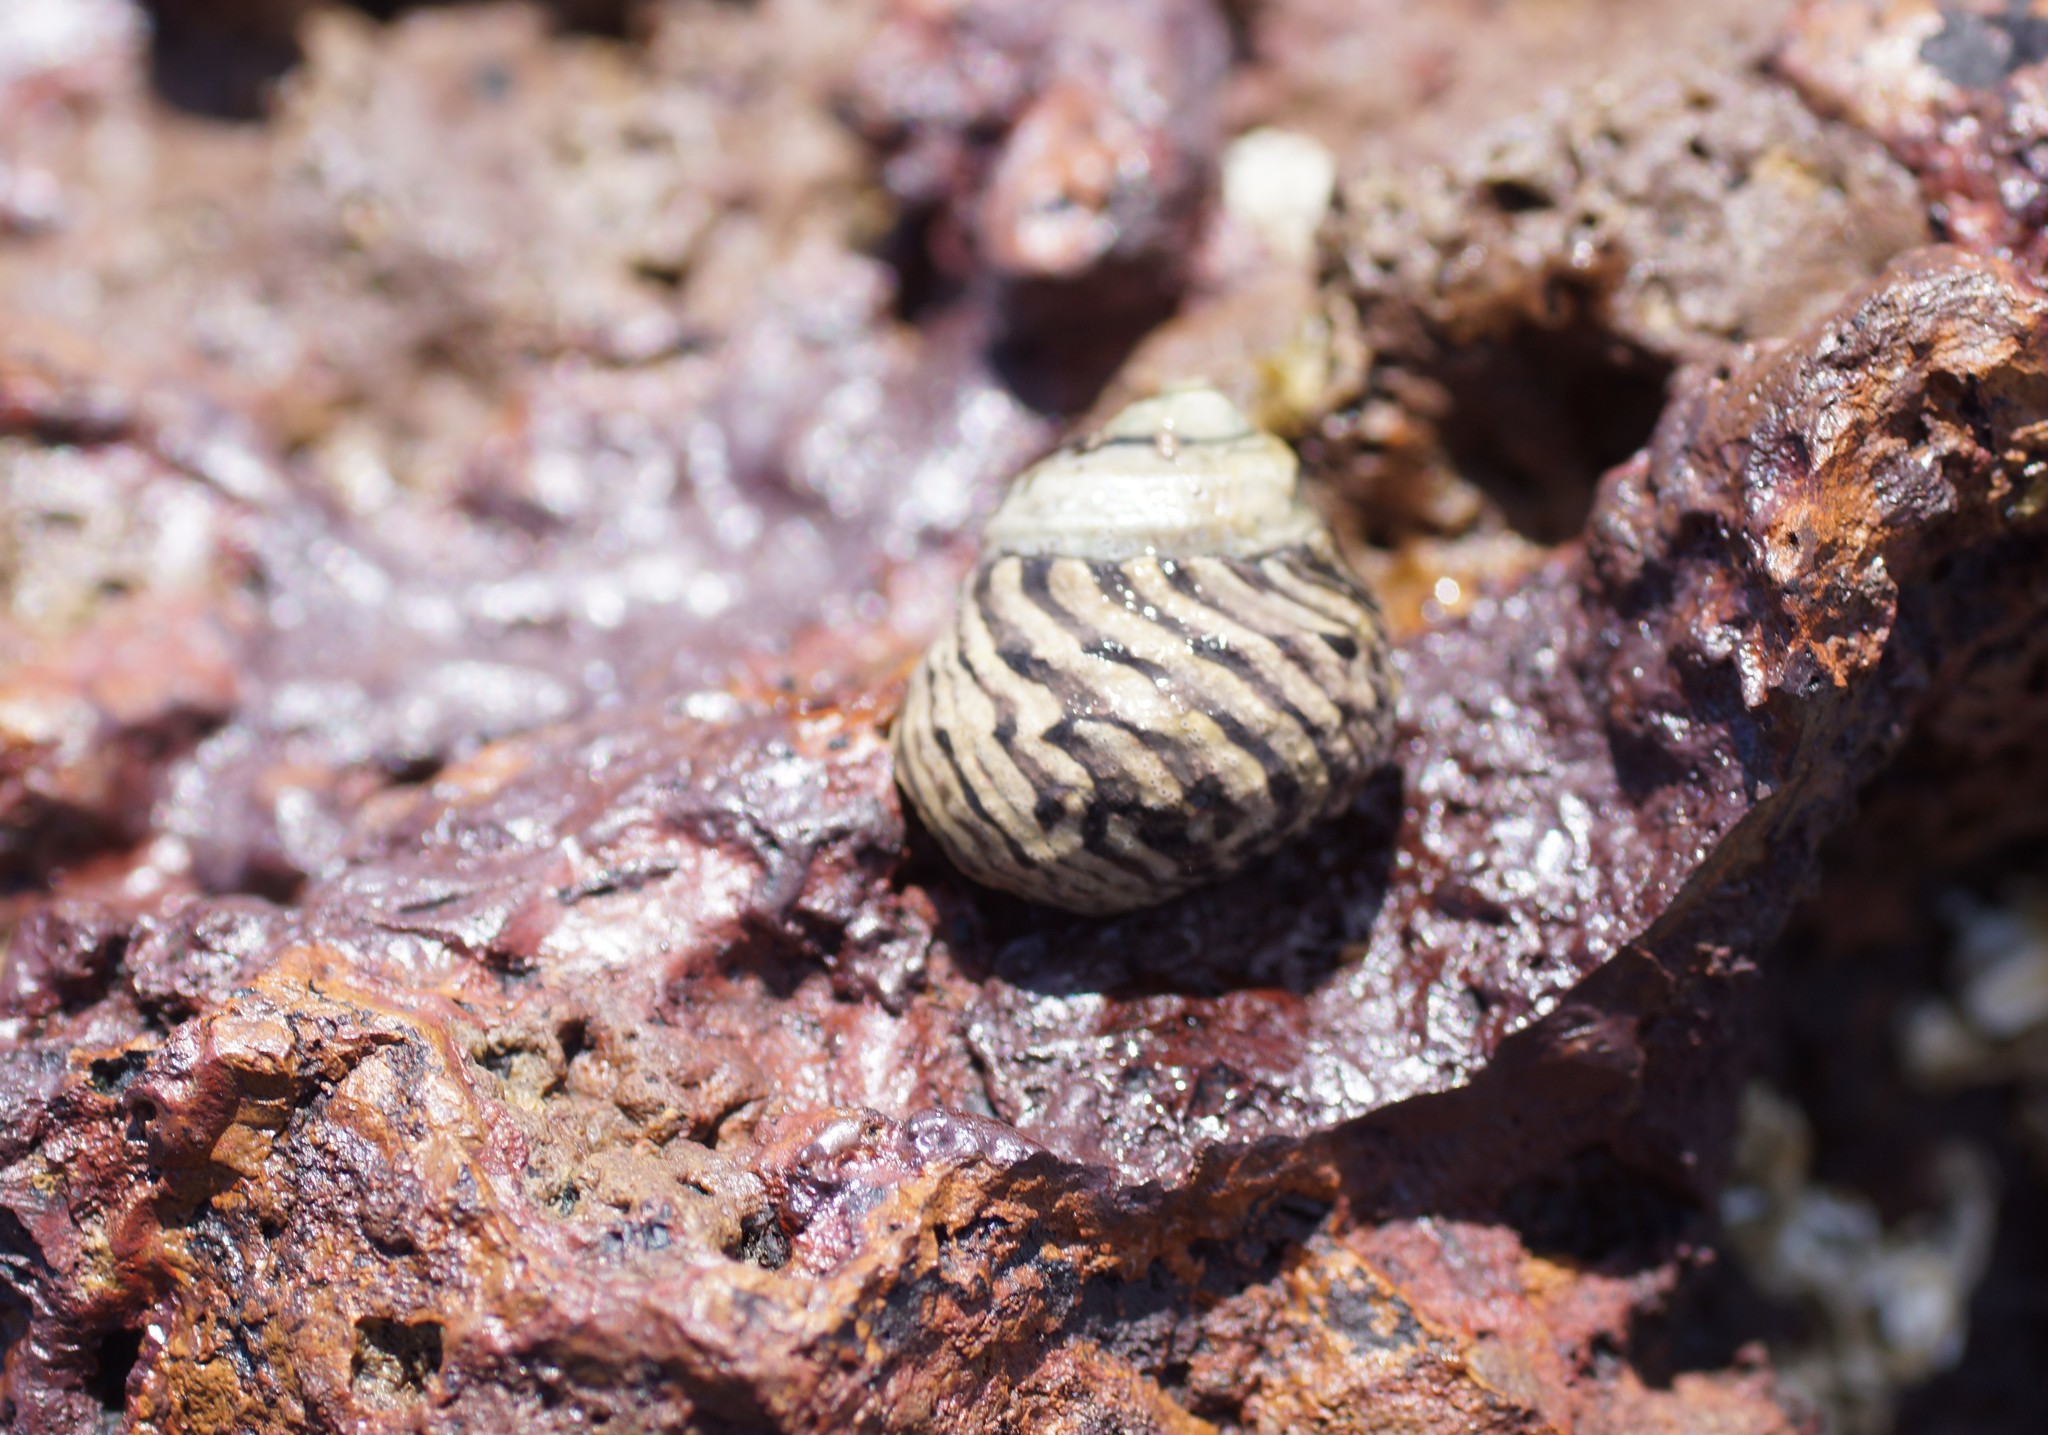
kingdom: Animalia
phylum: Mollusca
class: Gastropoda
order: Trochida
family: Trochidae
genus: Austrocochlea
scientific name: Austrocochlea porcata
